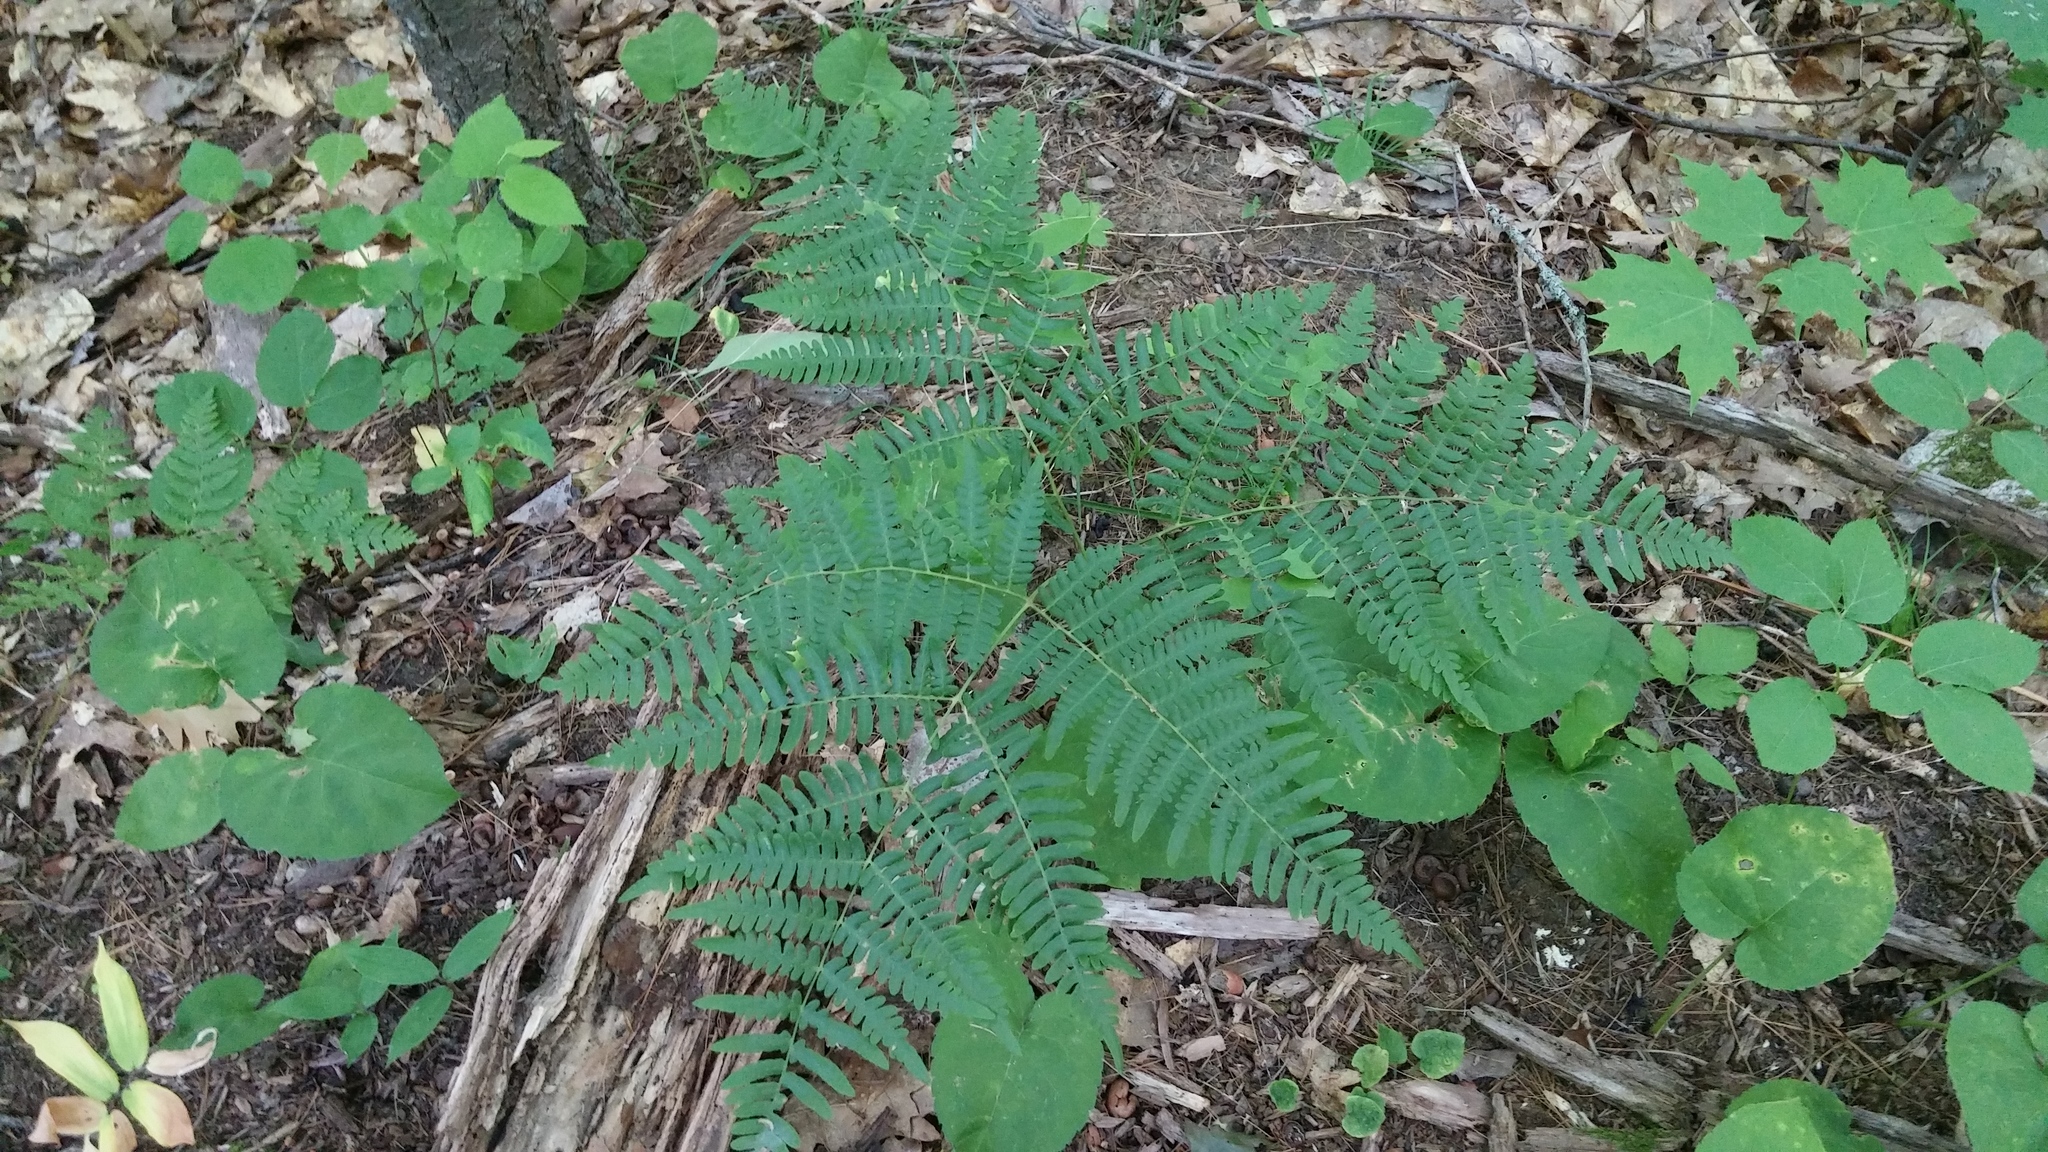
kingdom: Plantae
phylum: Tracheophyta
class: Polypodiopsida
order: Polypodiales
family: Dennstaedtiaceae
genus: Pteridium
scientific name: Pteridium aquilinum
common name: Bracken
